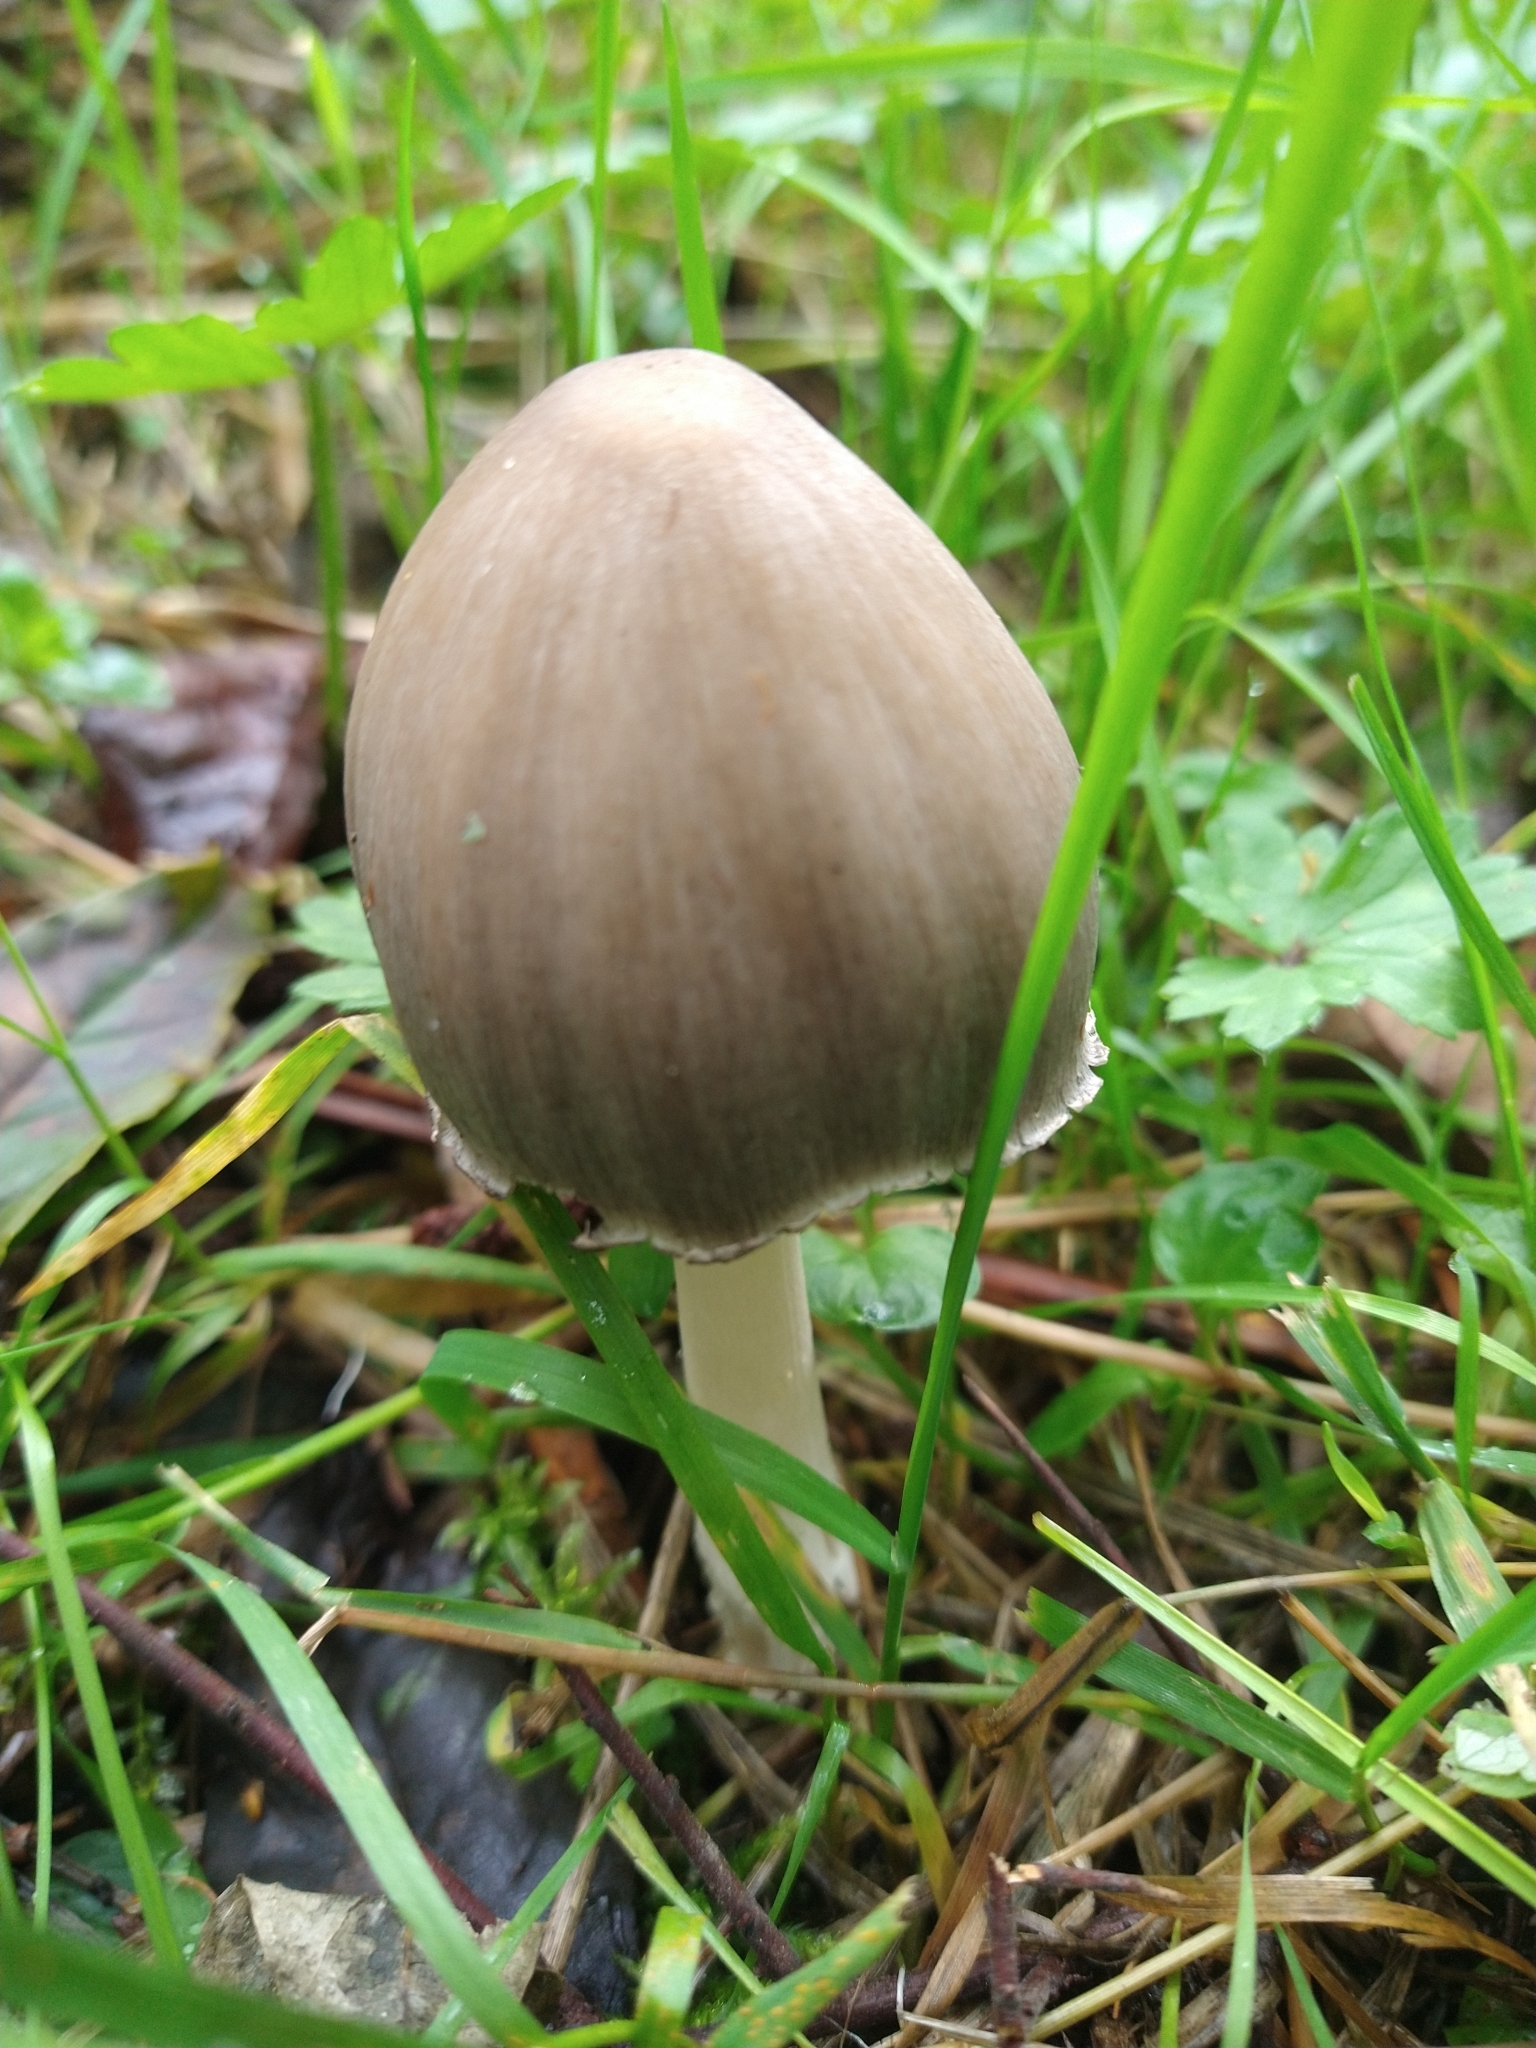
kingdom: Fungi
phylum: Basidiomycota
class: Agaricomycetes
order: Agaricales
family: Psathyrellaceae
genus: Coprinopsis
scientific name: Coprinopsis atramentaria
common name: Common ink-cap
